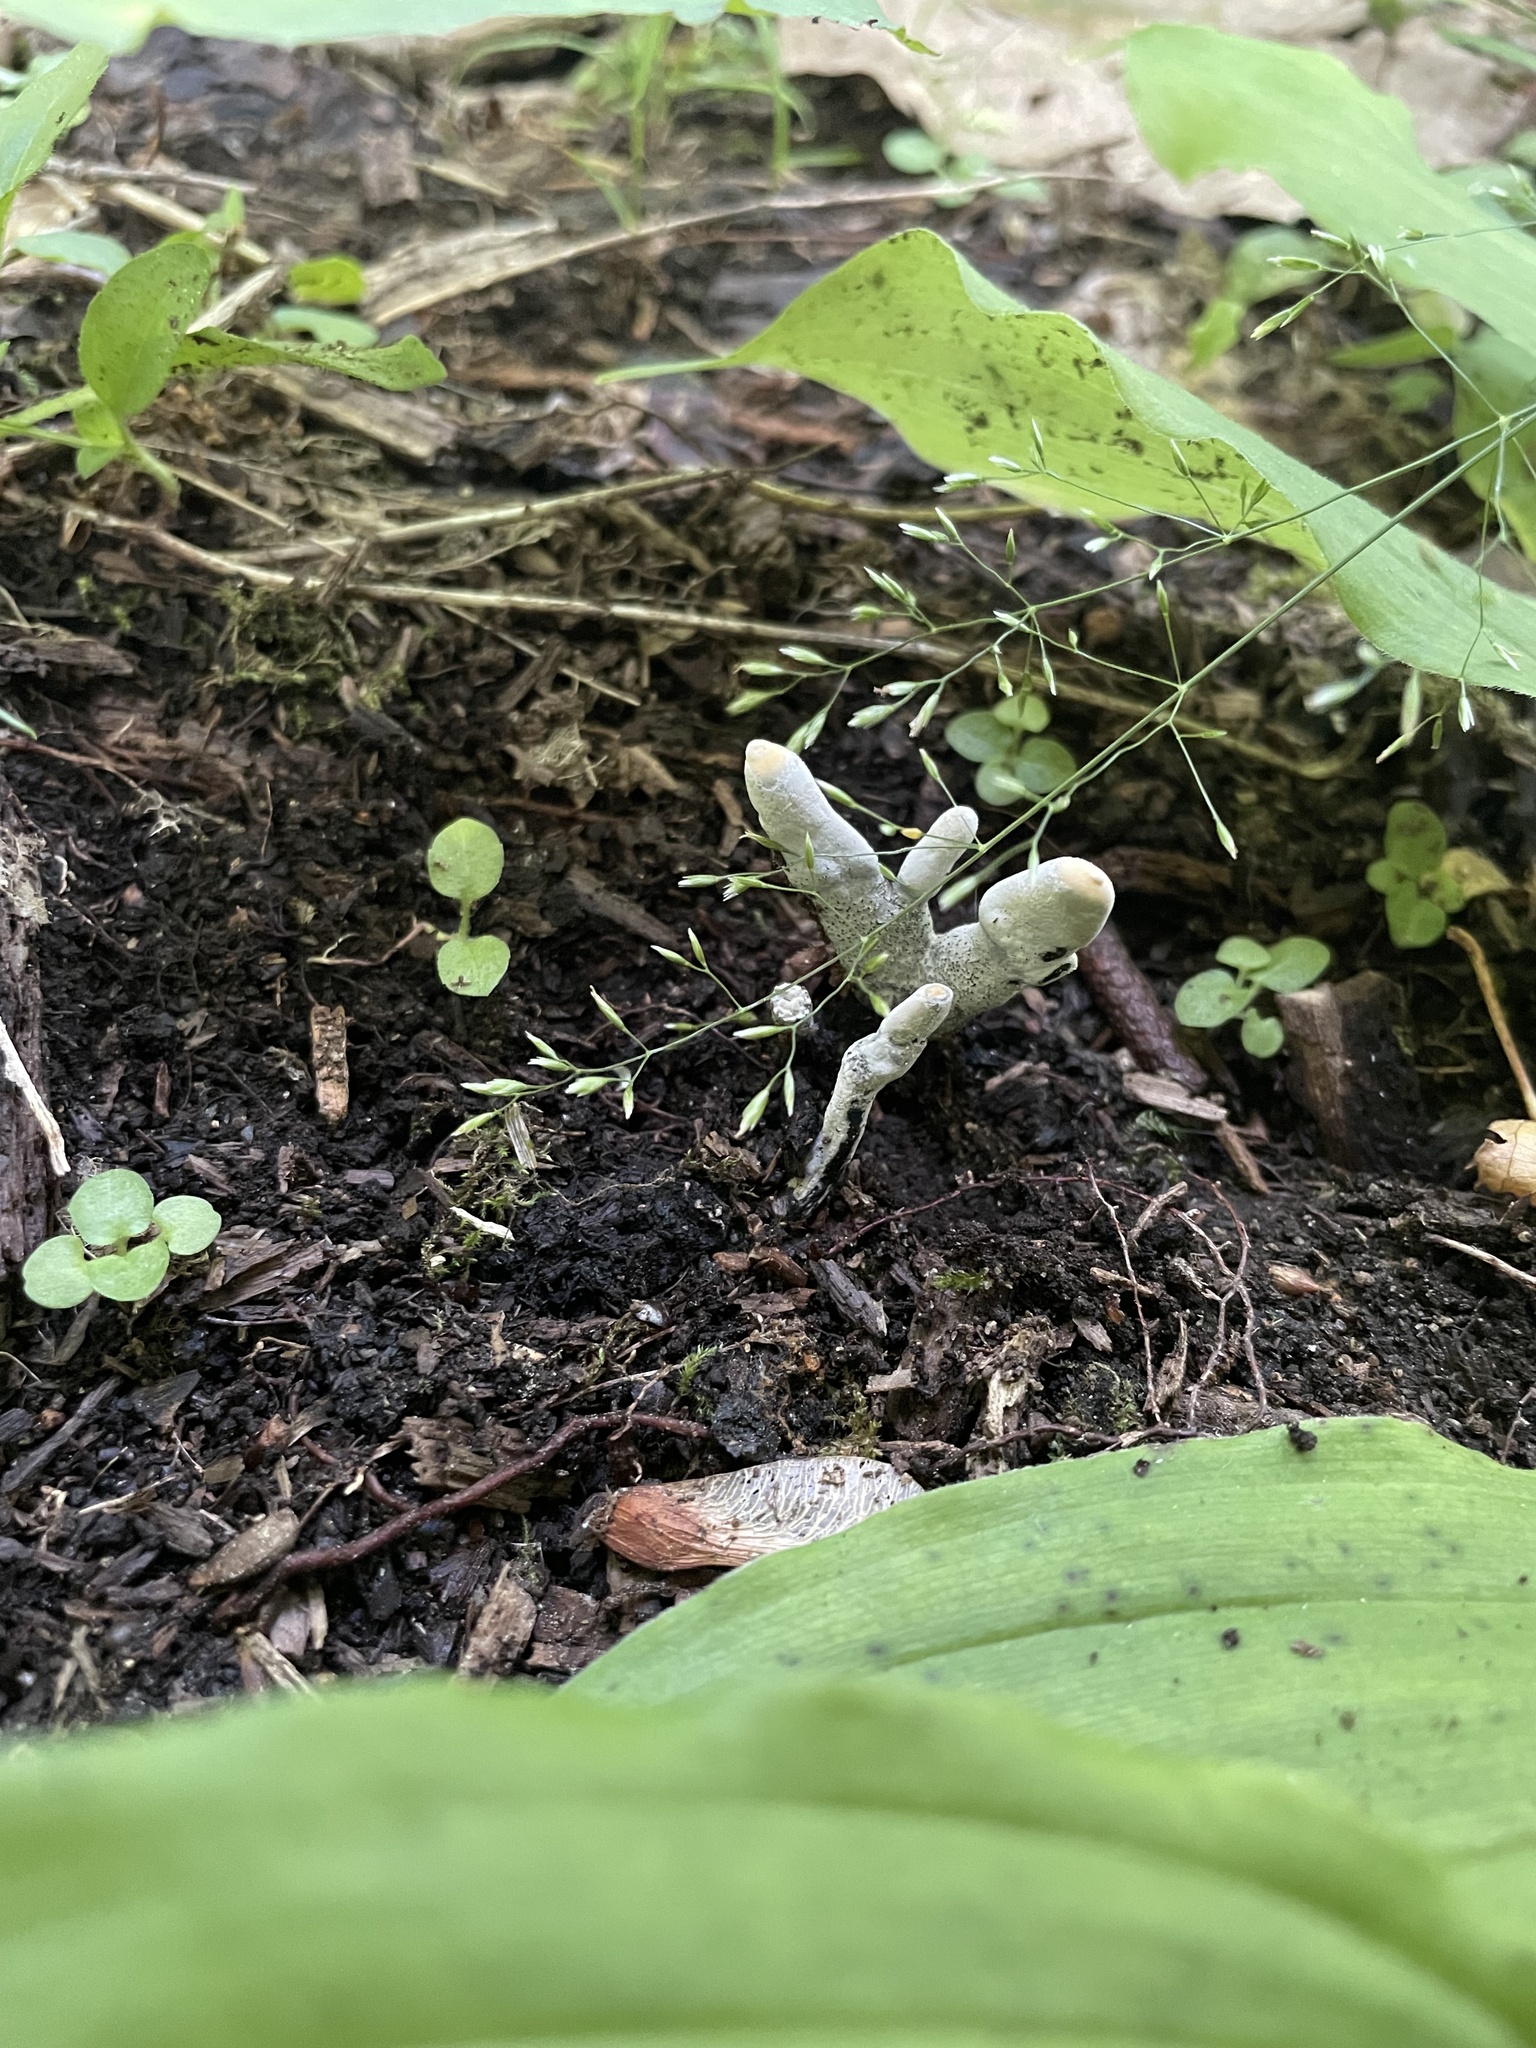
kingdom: Fungi
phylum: Ascomycota
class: Sordariomycetes
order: Xylariales
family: Xylariaceae
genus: Xylaria
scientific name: Xylaria polymorpha
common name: Dead man's fingers
